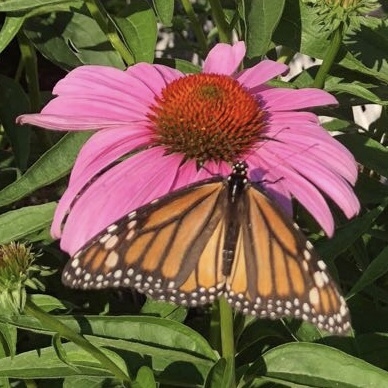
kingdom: Animalia
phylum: Arthropoda
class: Insecta
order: Lepidoptera
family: Nymphalidae
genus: Danaus
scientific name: Danaus plexippus
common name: Monarch
